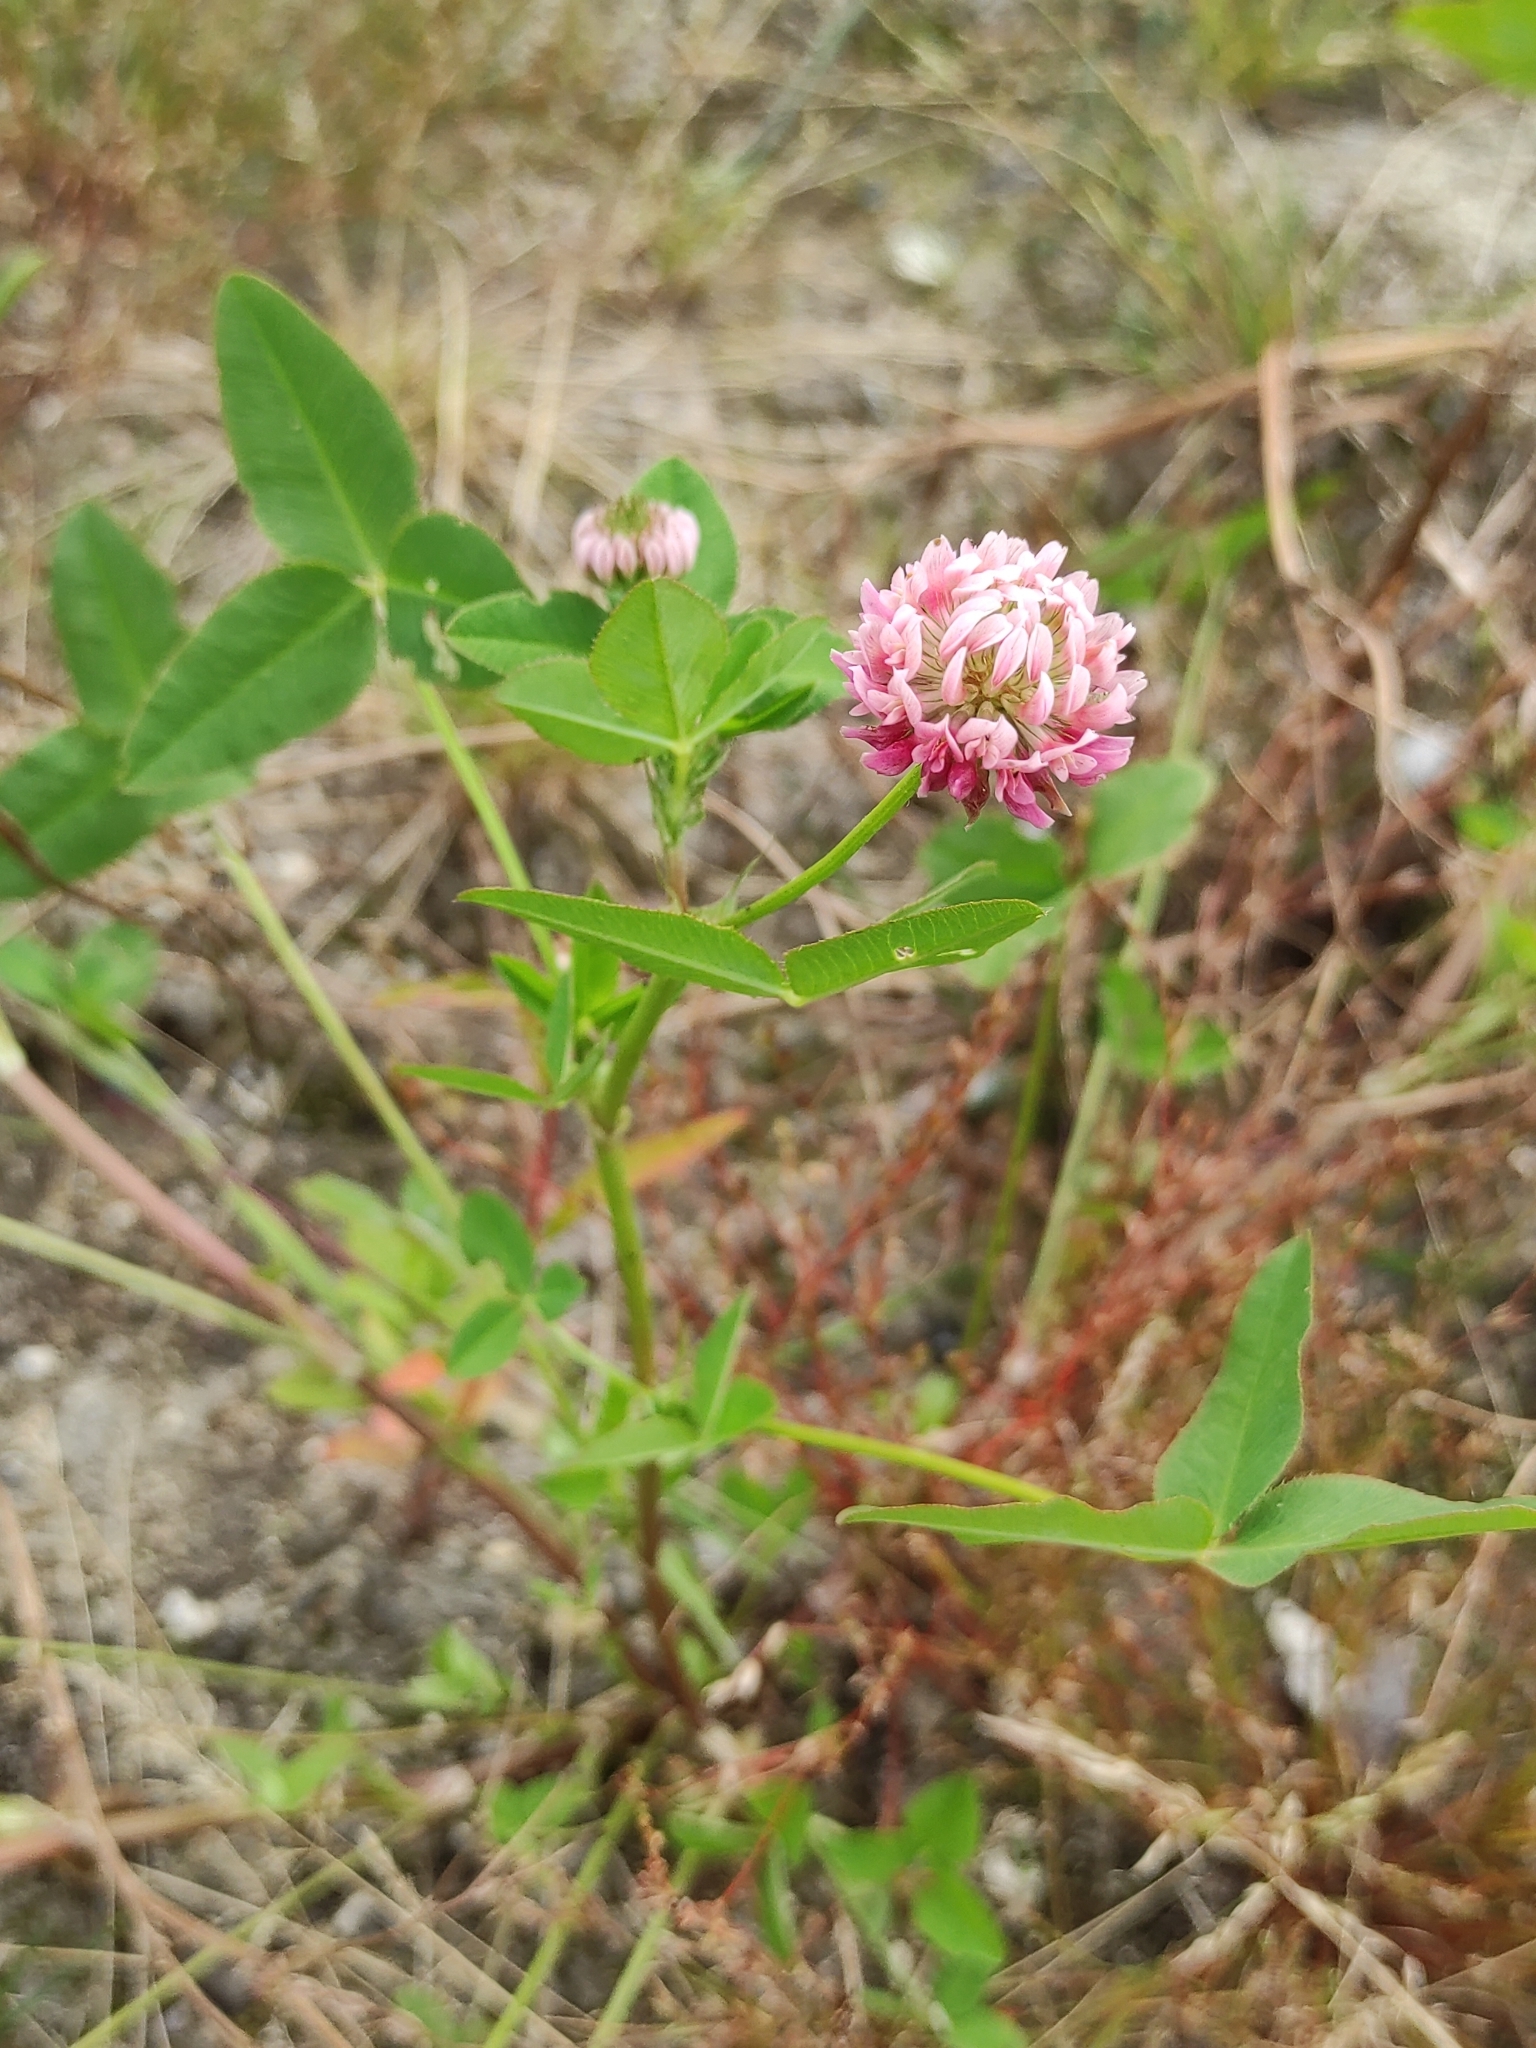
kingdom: Plantae
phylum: Tracheophyta
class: Magnoliopsida
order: Fabales
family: Fabaceae
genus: Trifolium
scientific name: Trifolium hybridum
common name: Alsike clover
